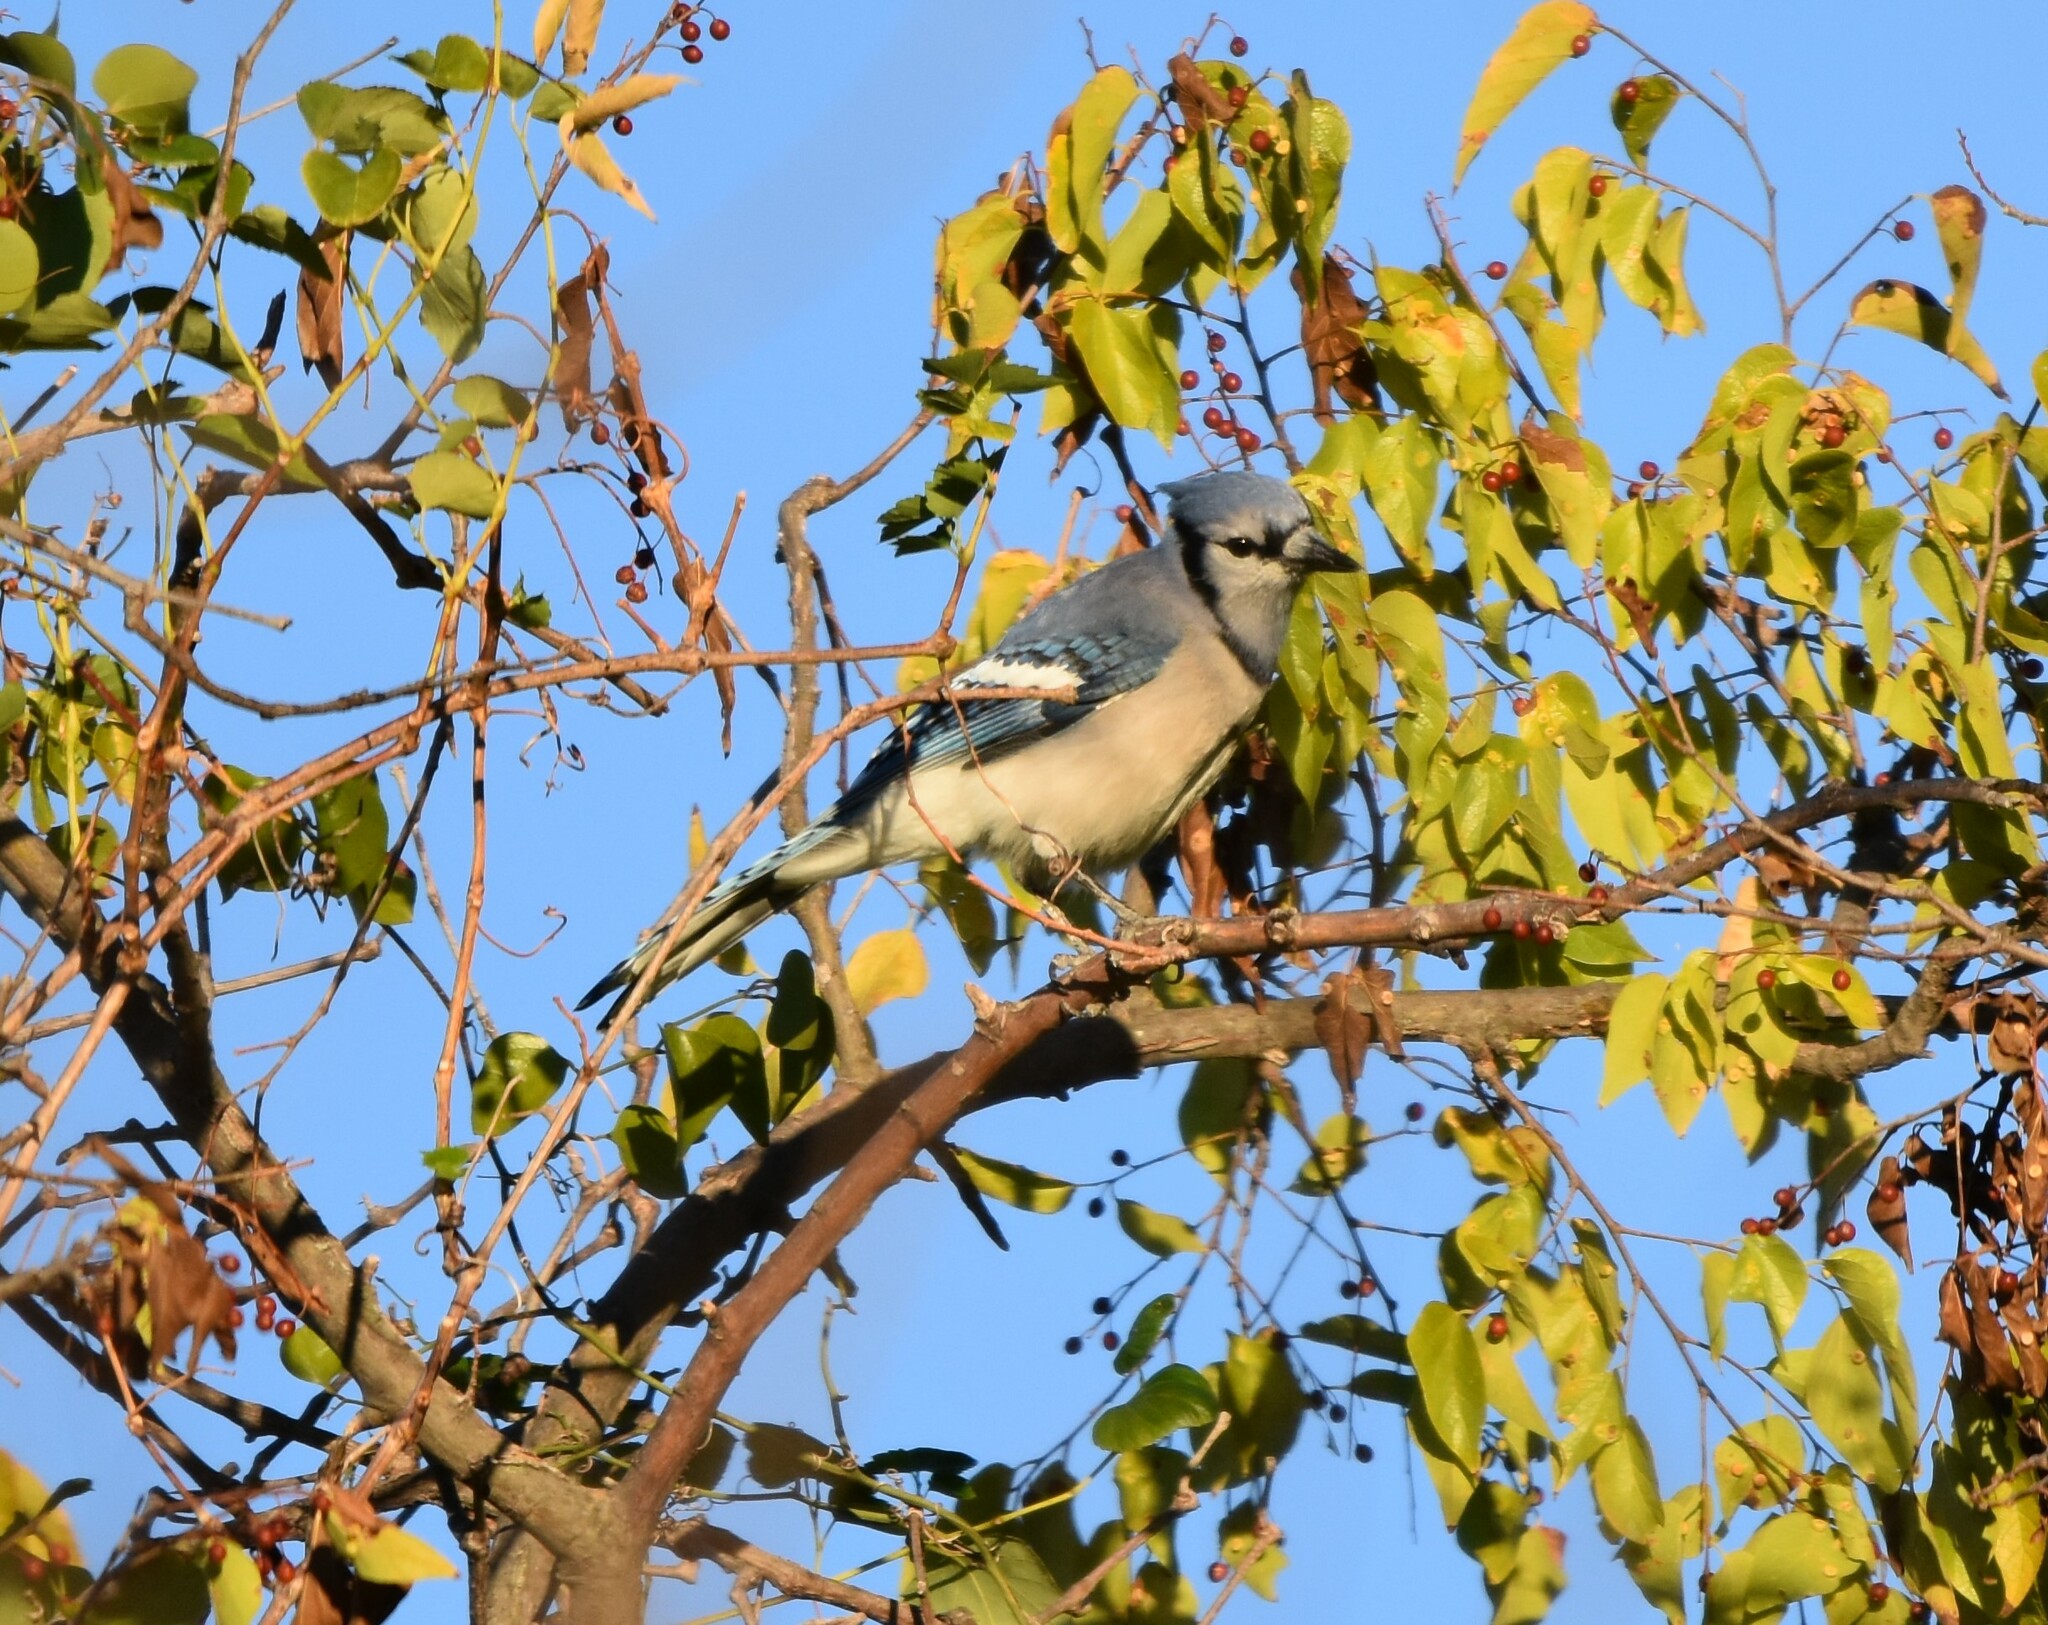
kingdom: Animalia
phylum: Chordata
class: Aves
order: Passeriformes
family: Corvidae
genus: Cyanocitta
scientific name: Cyanocitta cristata
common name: Blue jay
